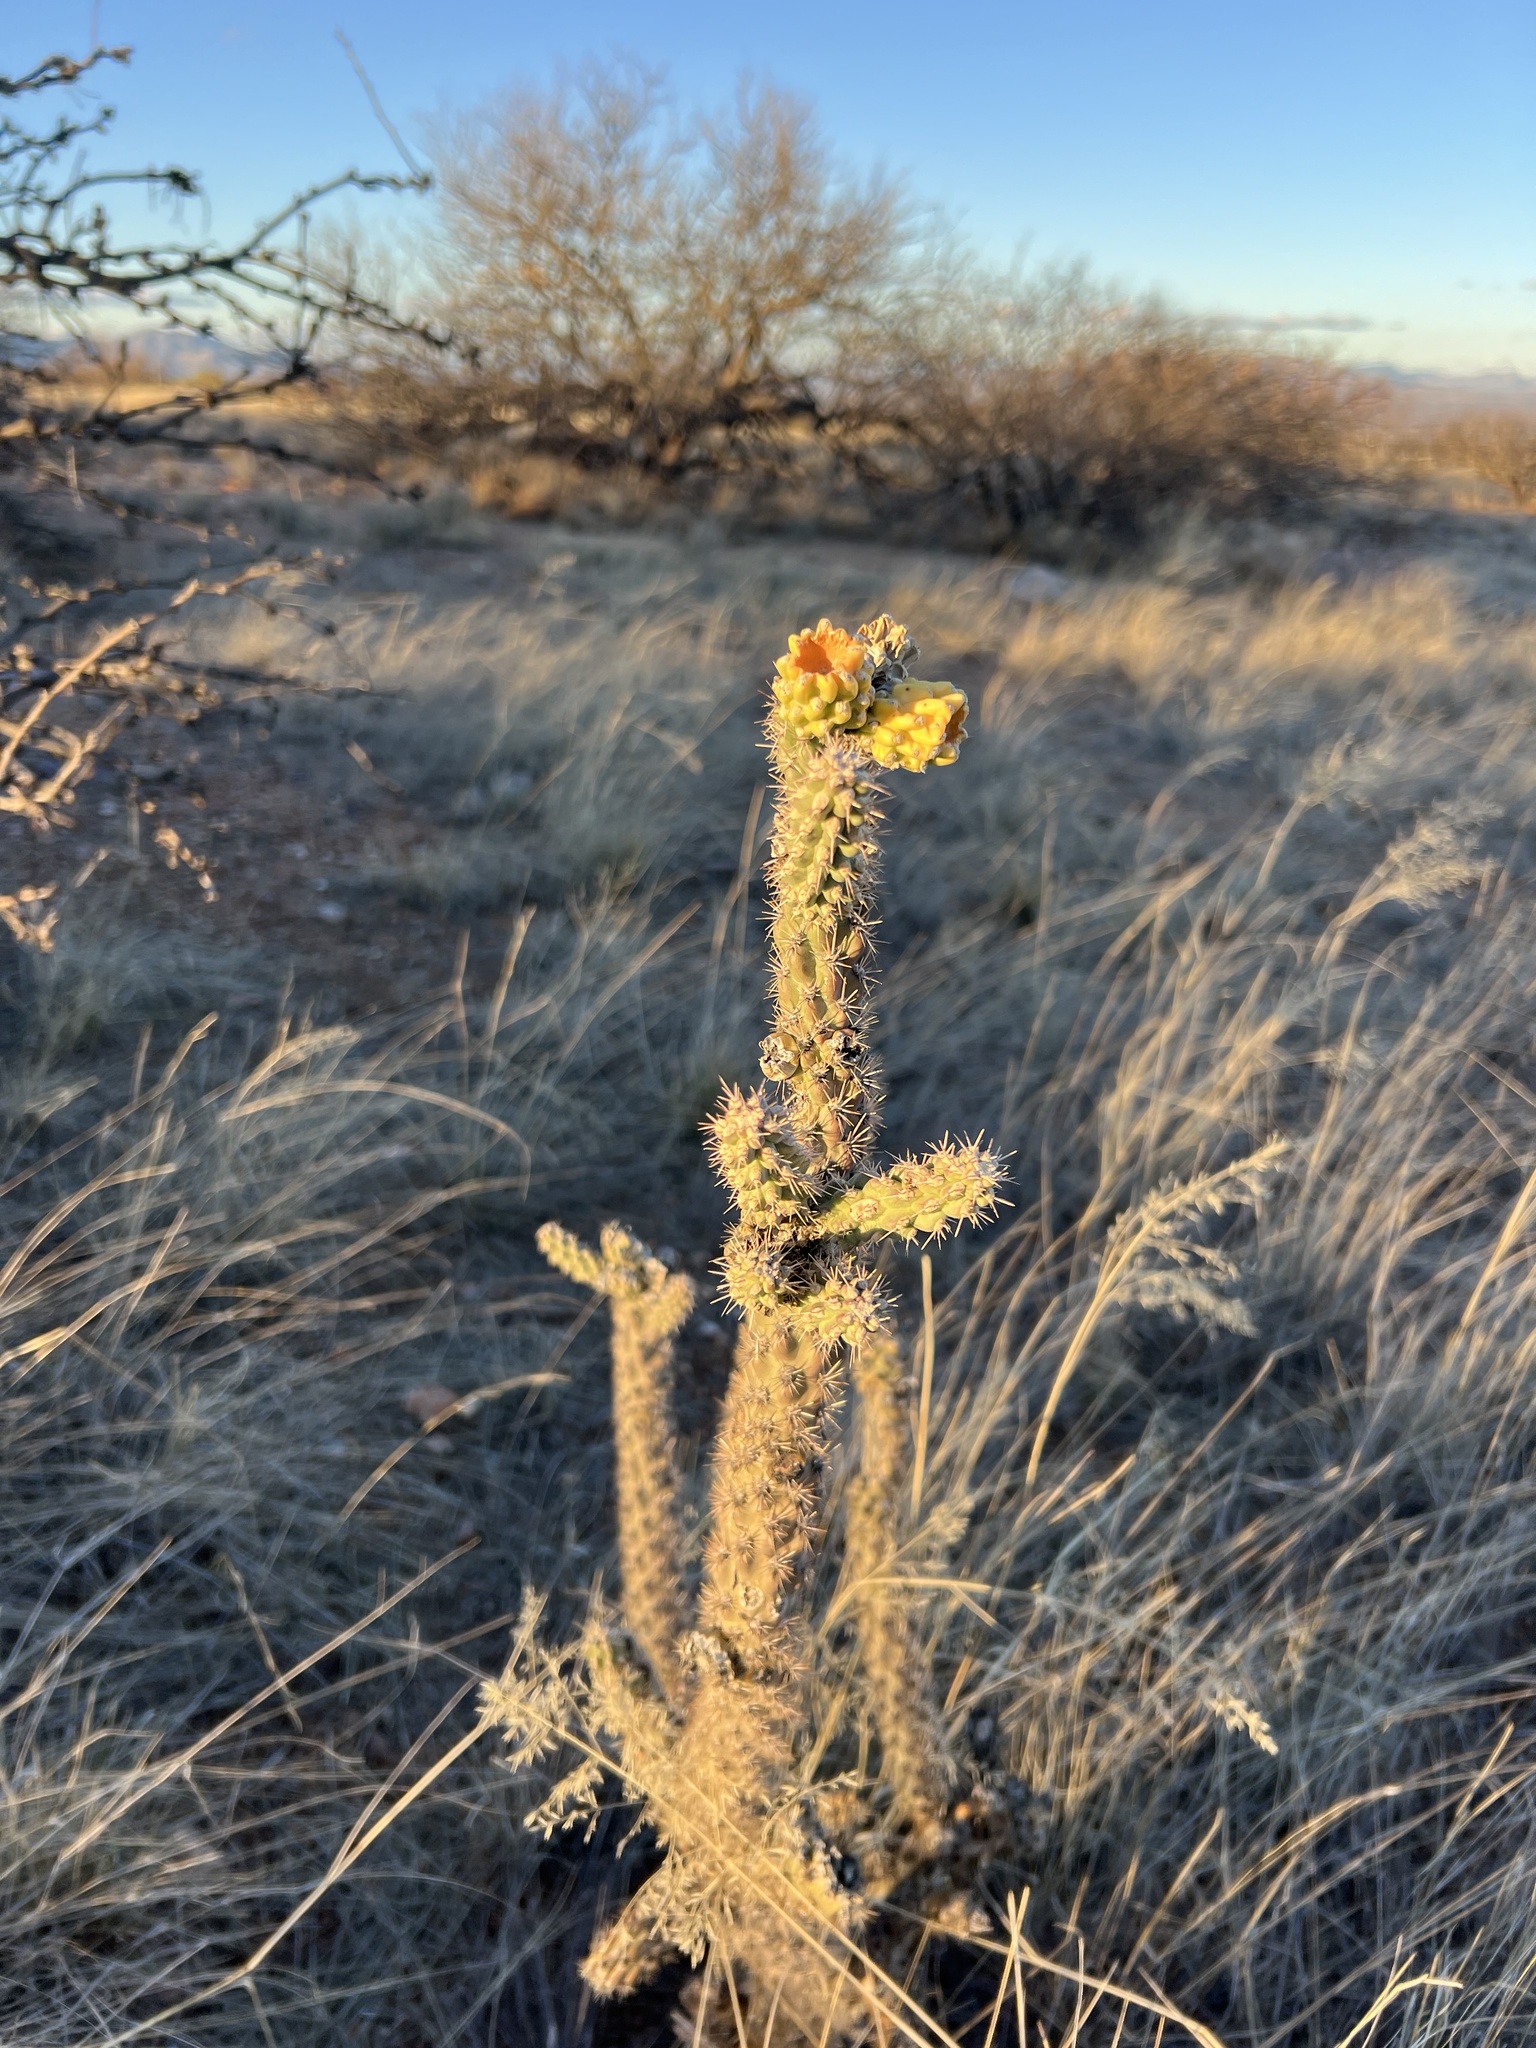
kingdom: Plantae
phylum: Tracheophyta
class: Magnoliopsida
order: Caryophyllales
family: Cactaceae
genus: Cylindropuntia
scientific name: Cylindropuntia imbricata
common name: Candelabrum cactus
